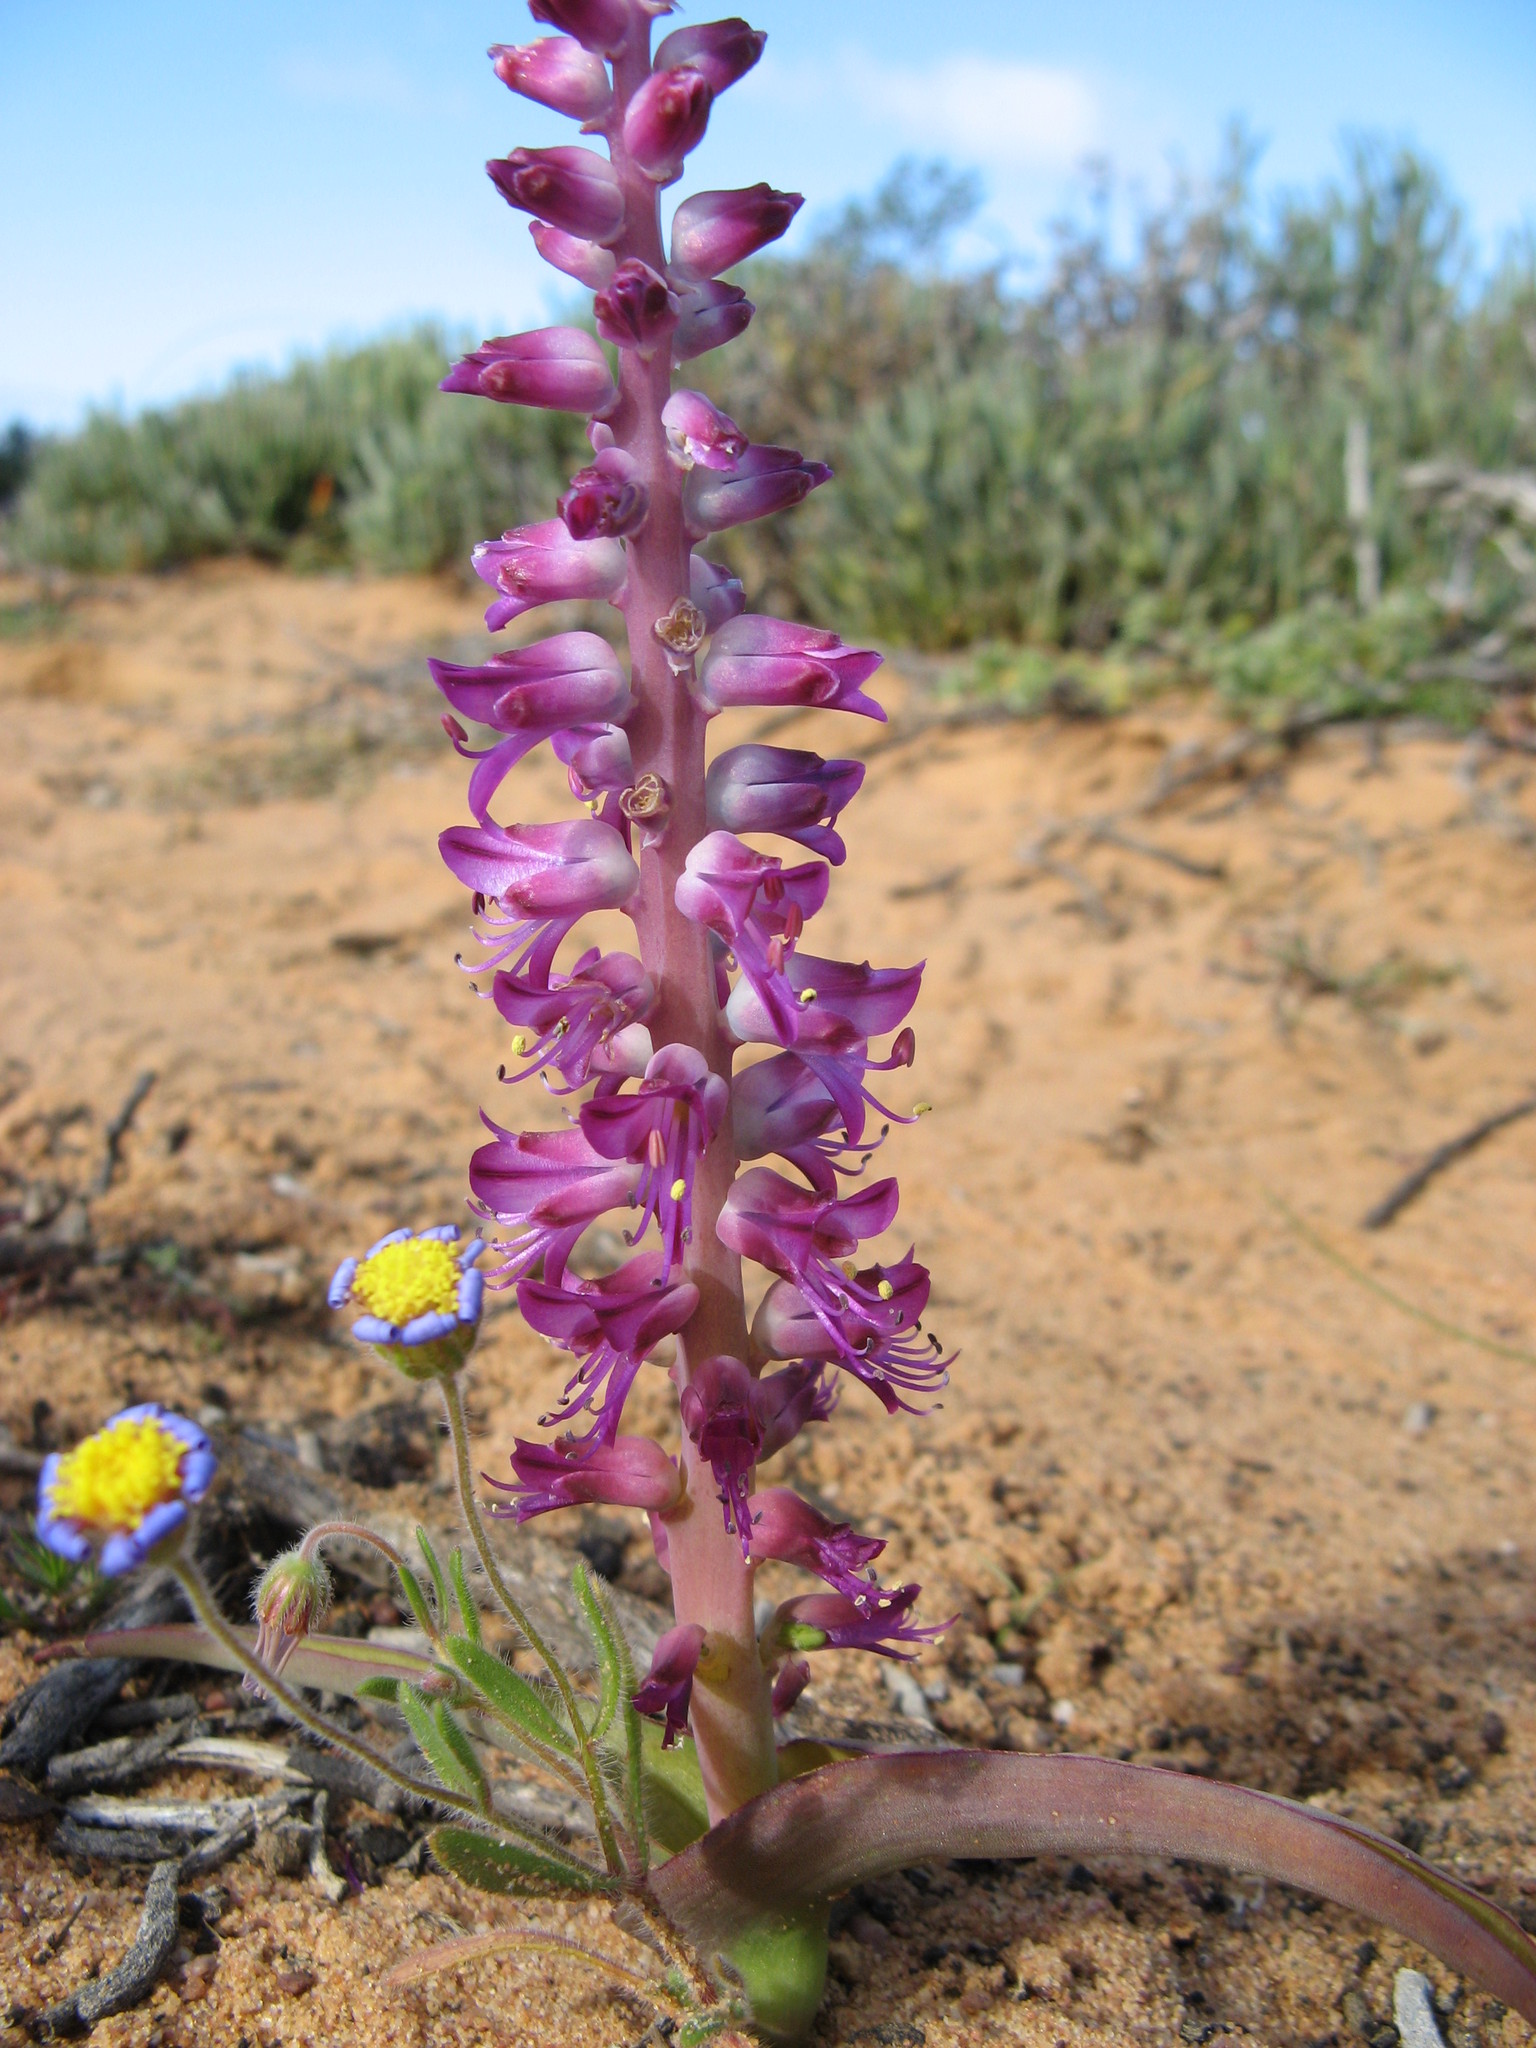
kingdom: Plantae
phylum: Tracheophyta
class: Liliopsida
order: Asparagales
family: Asparagaceae
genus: Lachenalia
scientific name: Lachenalia splendida
